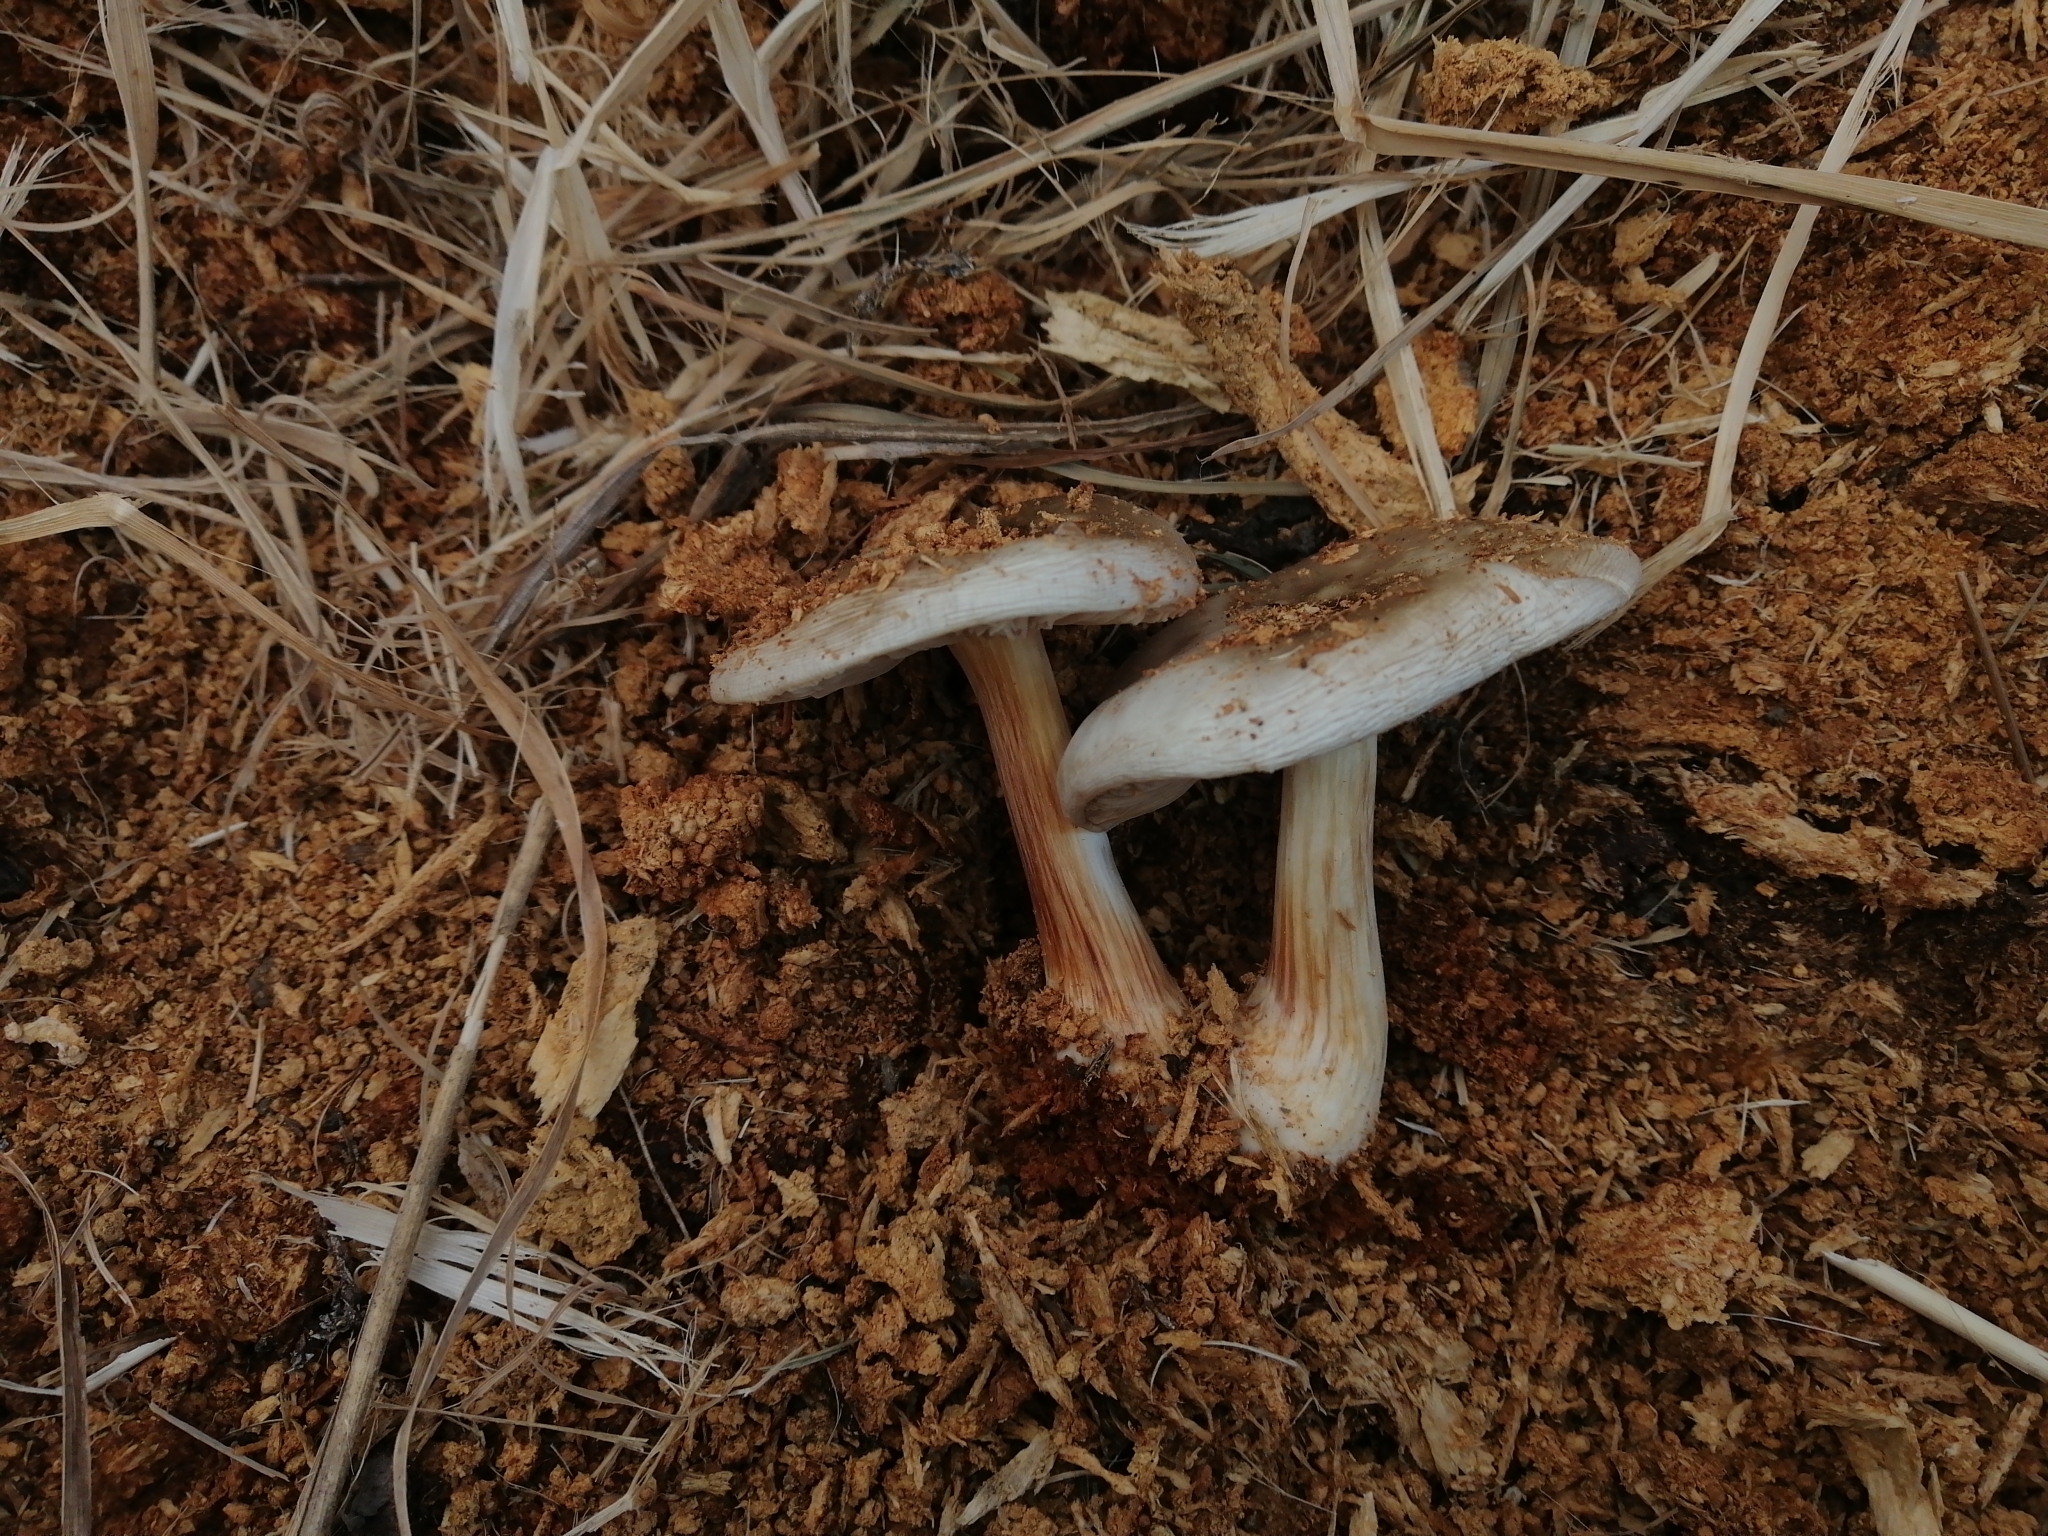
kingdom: Fungi
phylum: Basidiomycota
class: Agaricomycetes
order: Agaricales
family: Pluteaceae
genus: Pluteus
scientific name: Pluteus velutinornatus
